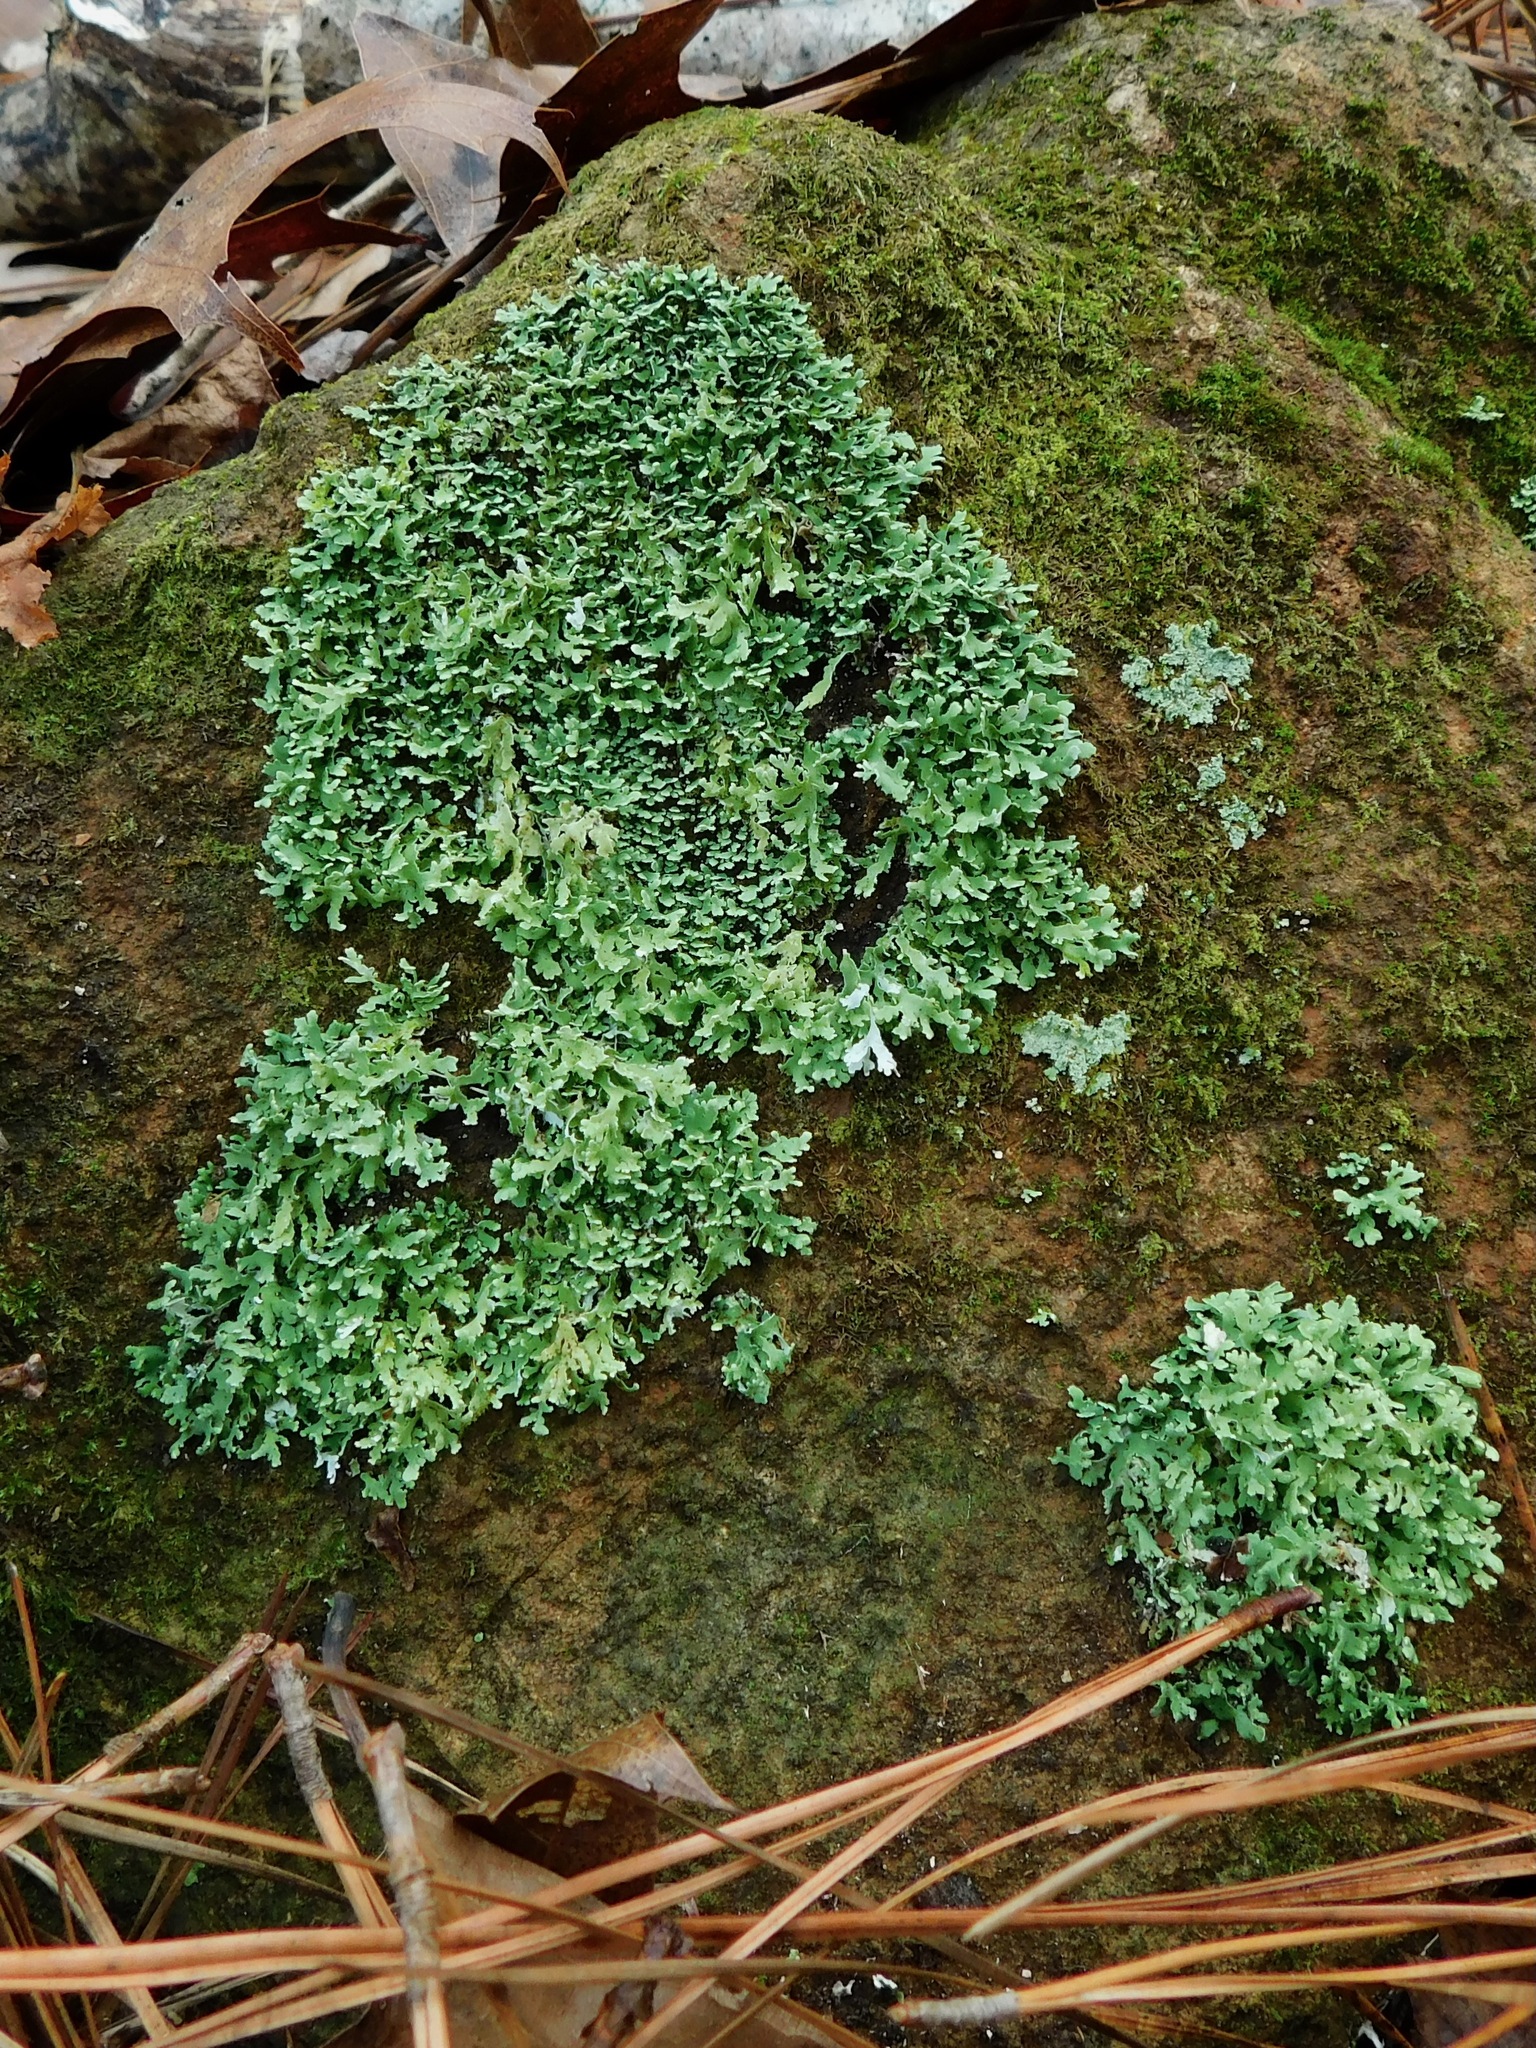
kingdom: Fungi
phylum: Ascomycota
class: Lecanoromycetes
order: Lecanorales
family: Cladoniaceae
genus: Cladonia
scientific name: Cladonia robbinsii
